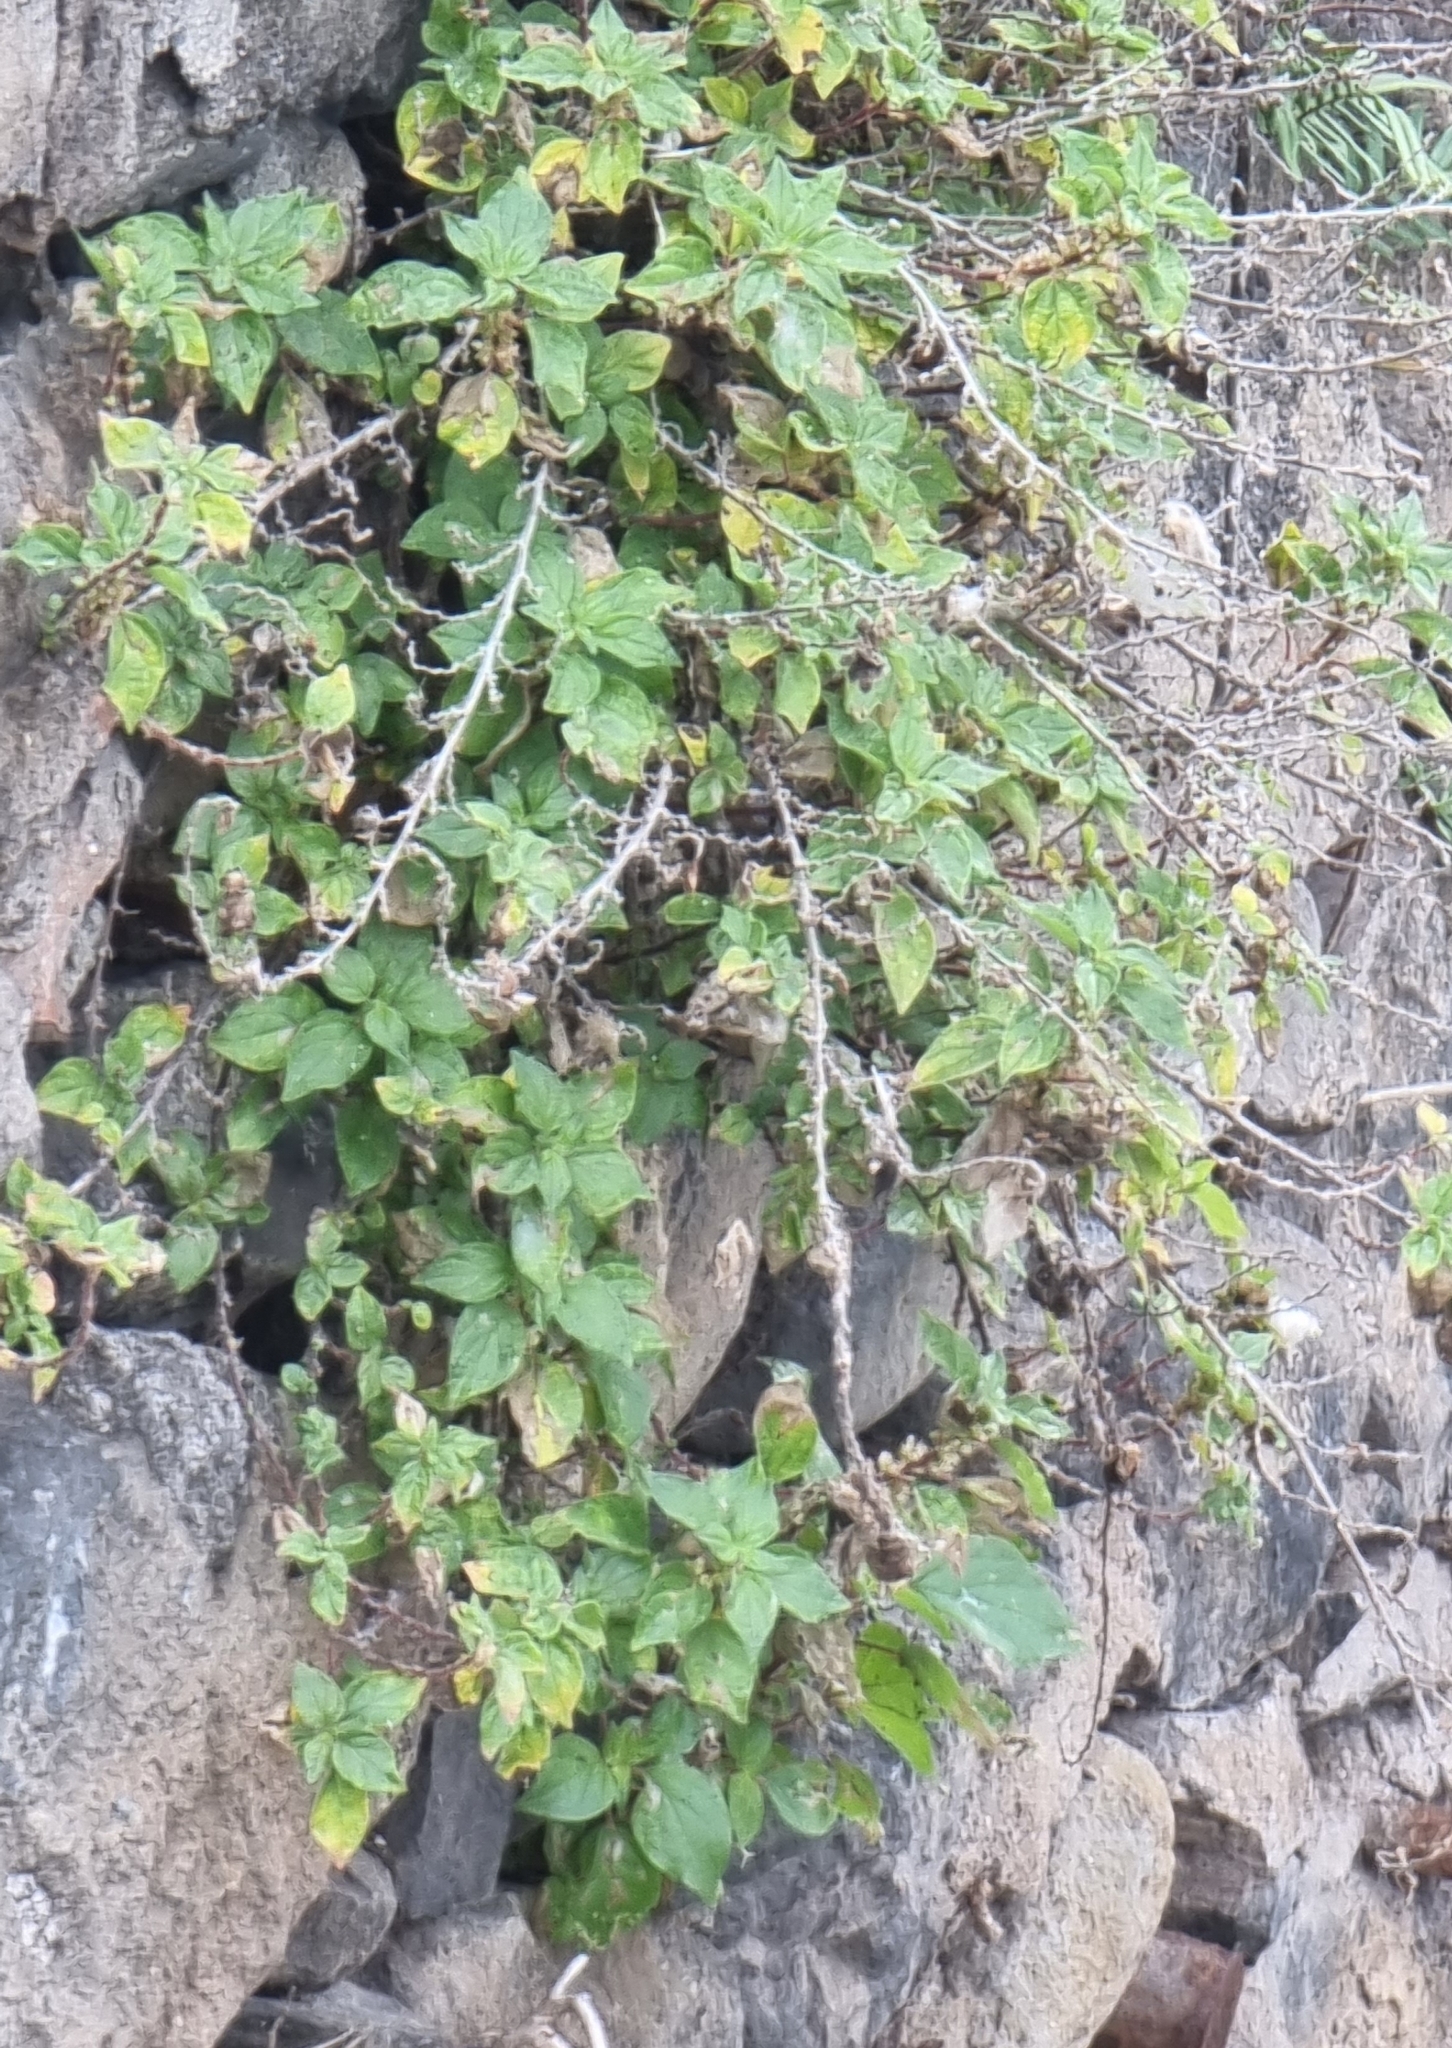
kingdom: Plantae
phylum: Tracheophyta
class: Magnoliopsida
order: Rosales
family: Urticaceae
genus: Parietaria
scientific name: Parietaria judaica
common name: Pellitory-of-the-wall
